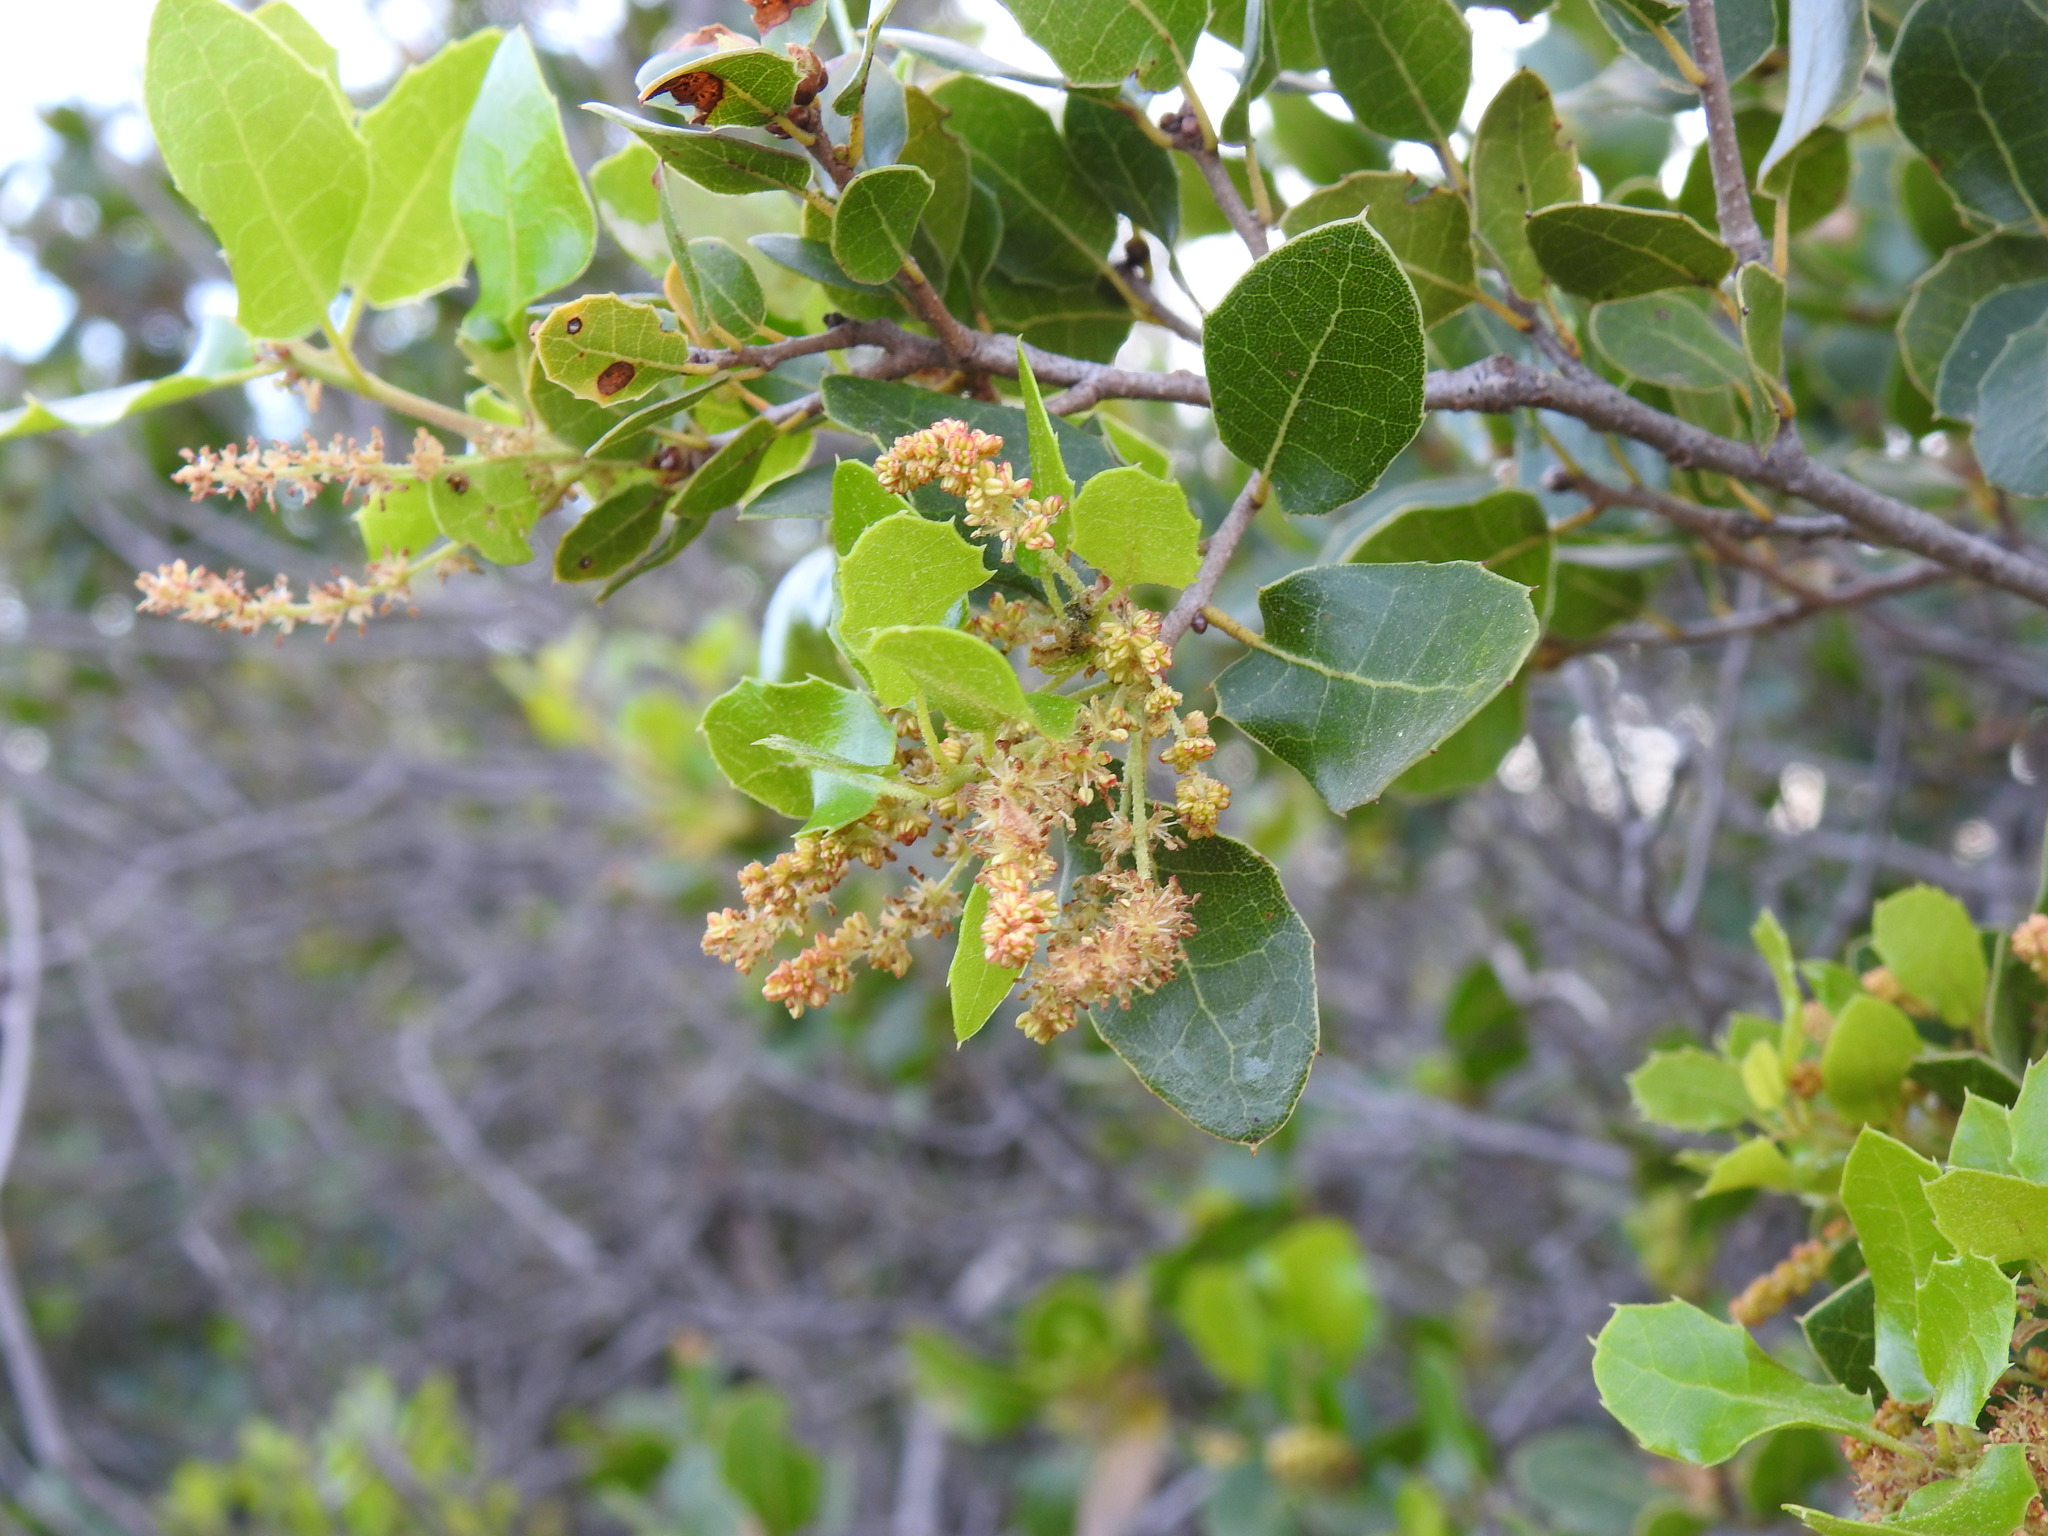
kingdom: Plantae
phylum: Tracheophyta
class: Magnoliopsida
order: Fagales
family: Fagaceae
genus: Quercus
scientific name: Quercus coccifera
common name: Kermes oak
